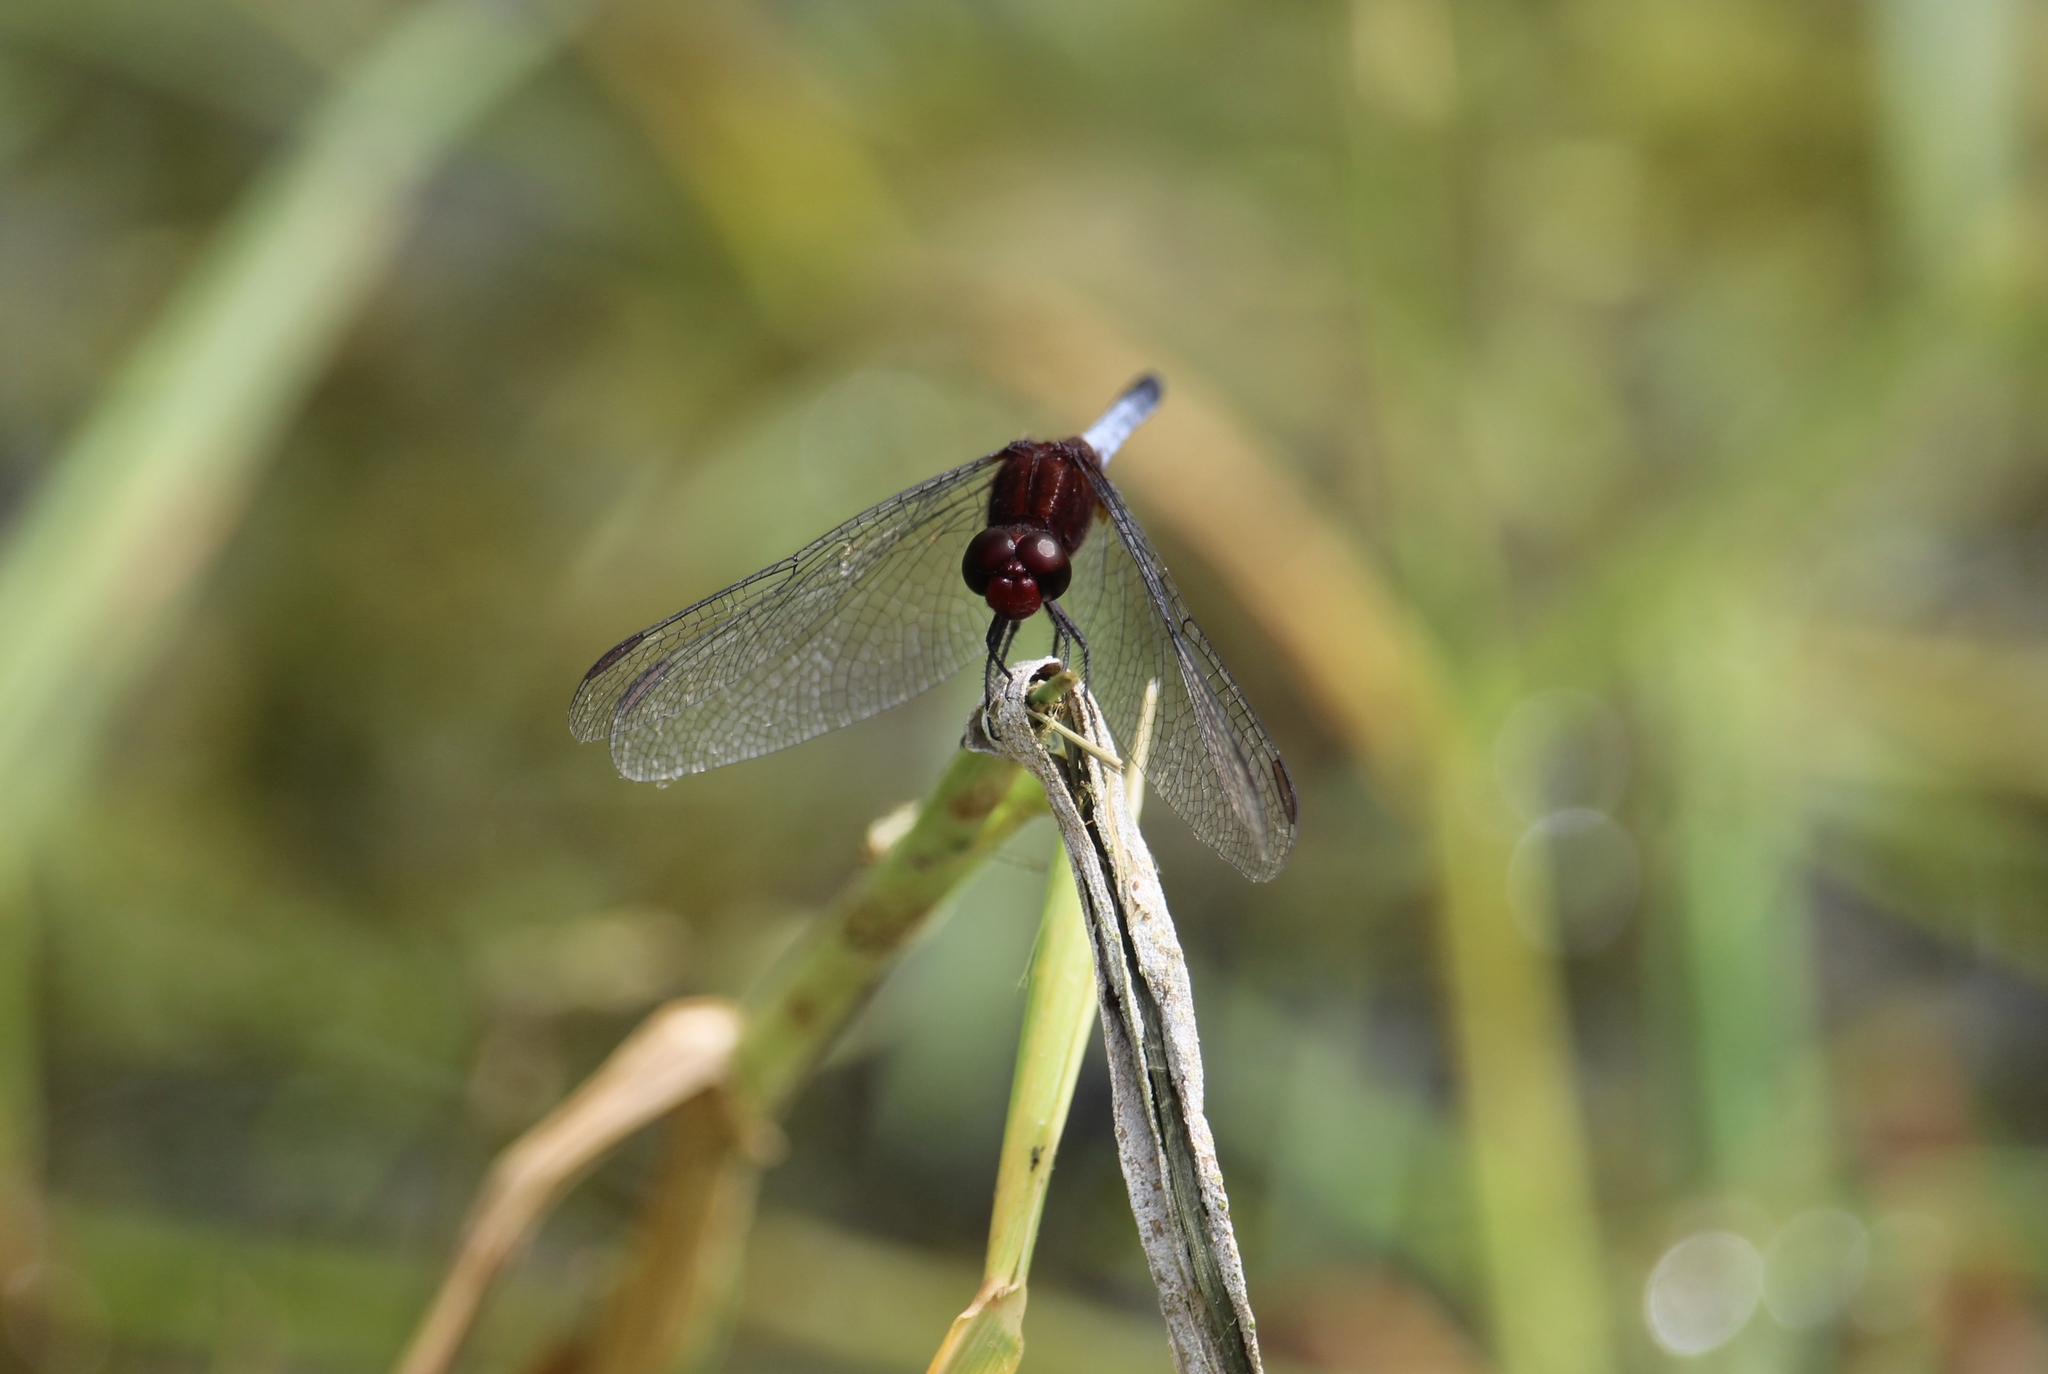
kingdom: Animalia
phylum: Arthropoda
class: Insecta
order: Odonata
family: Libellulidae
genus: Erythrodiplax
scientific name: Erythrodiplax fusca
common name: Red-faced dragonlet
